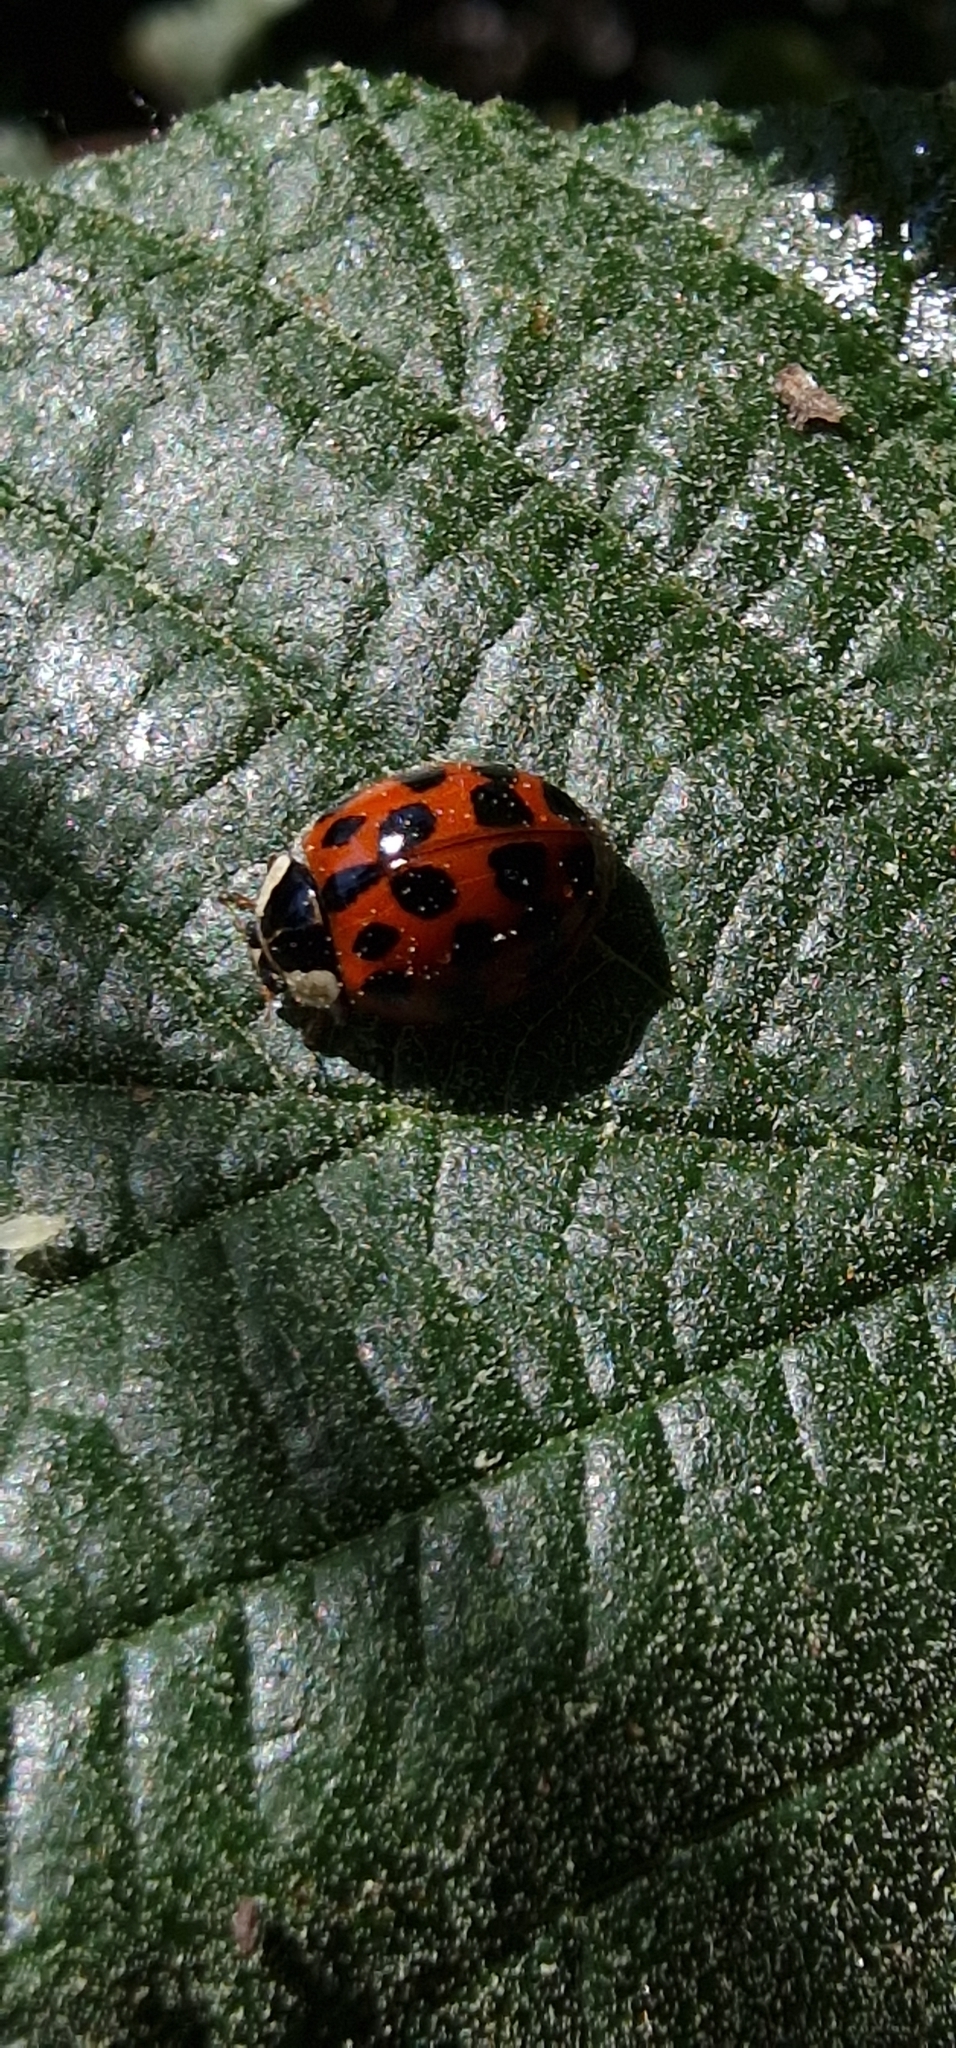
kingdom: Animalia
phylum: Arthropoda
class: Insecta
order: Coleoptera
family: Coccinellidae
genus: Harmonia
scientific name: Harmonia axyridis
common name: Harlequin ladybird
